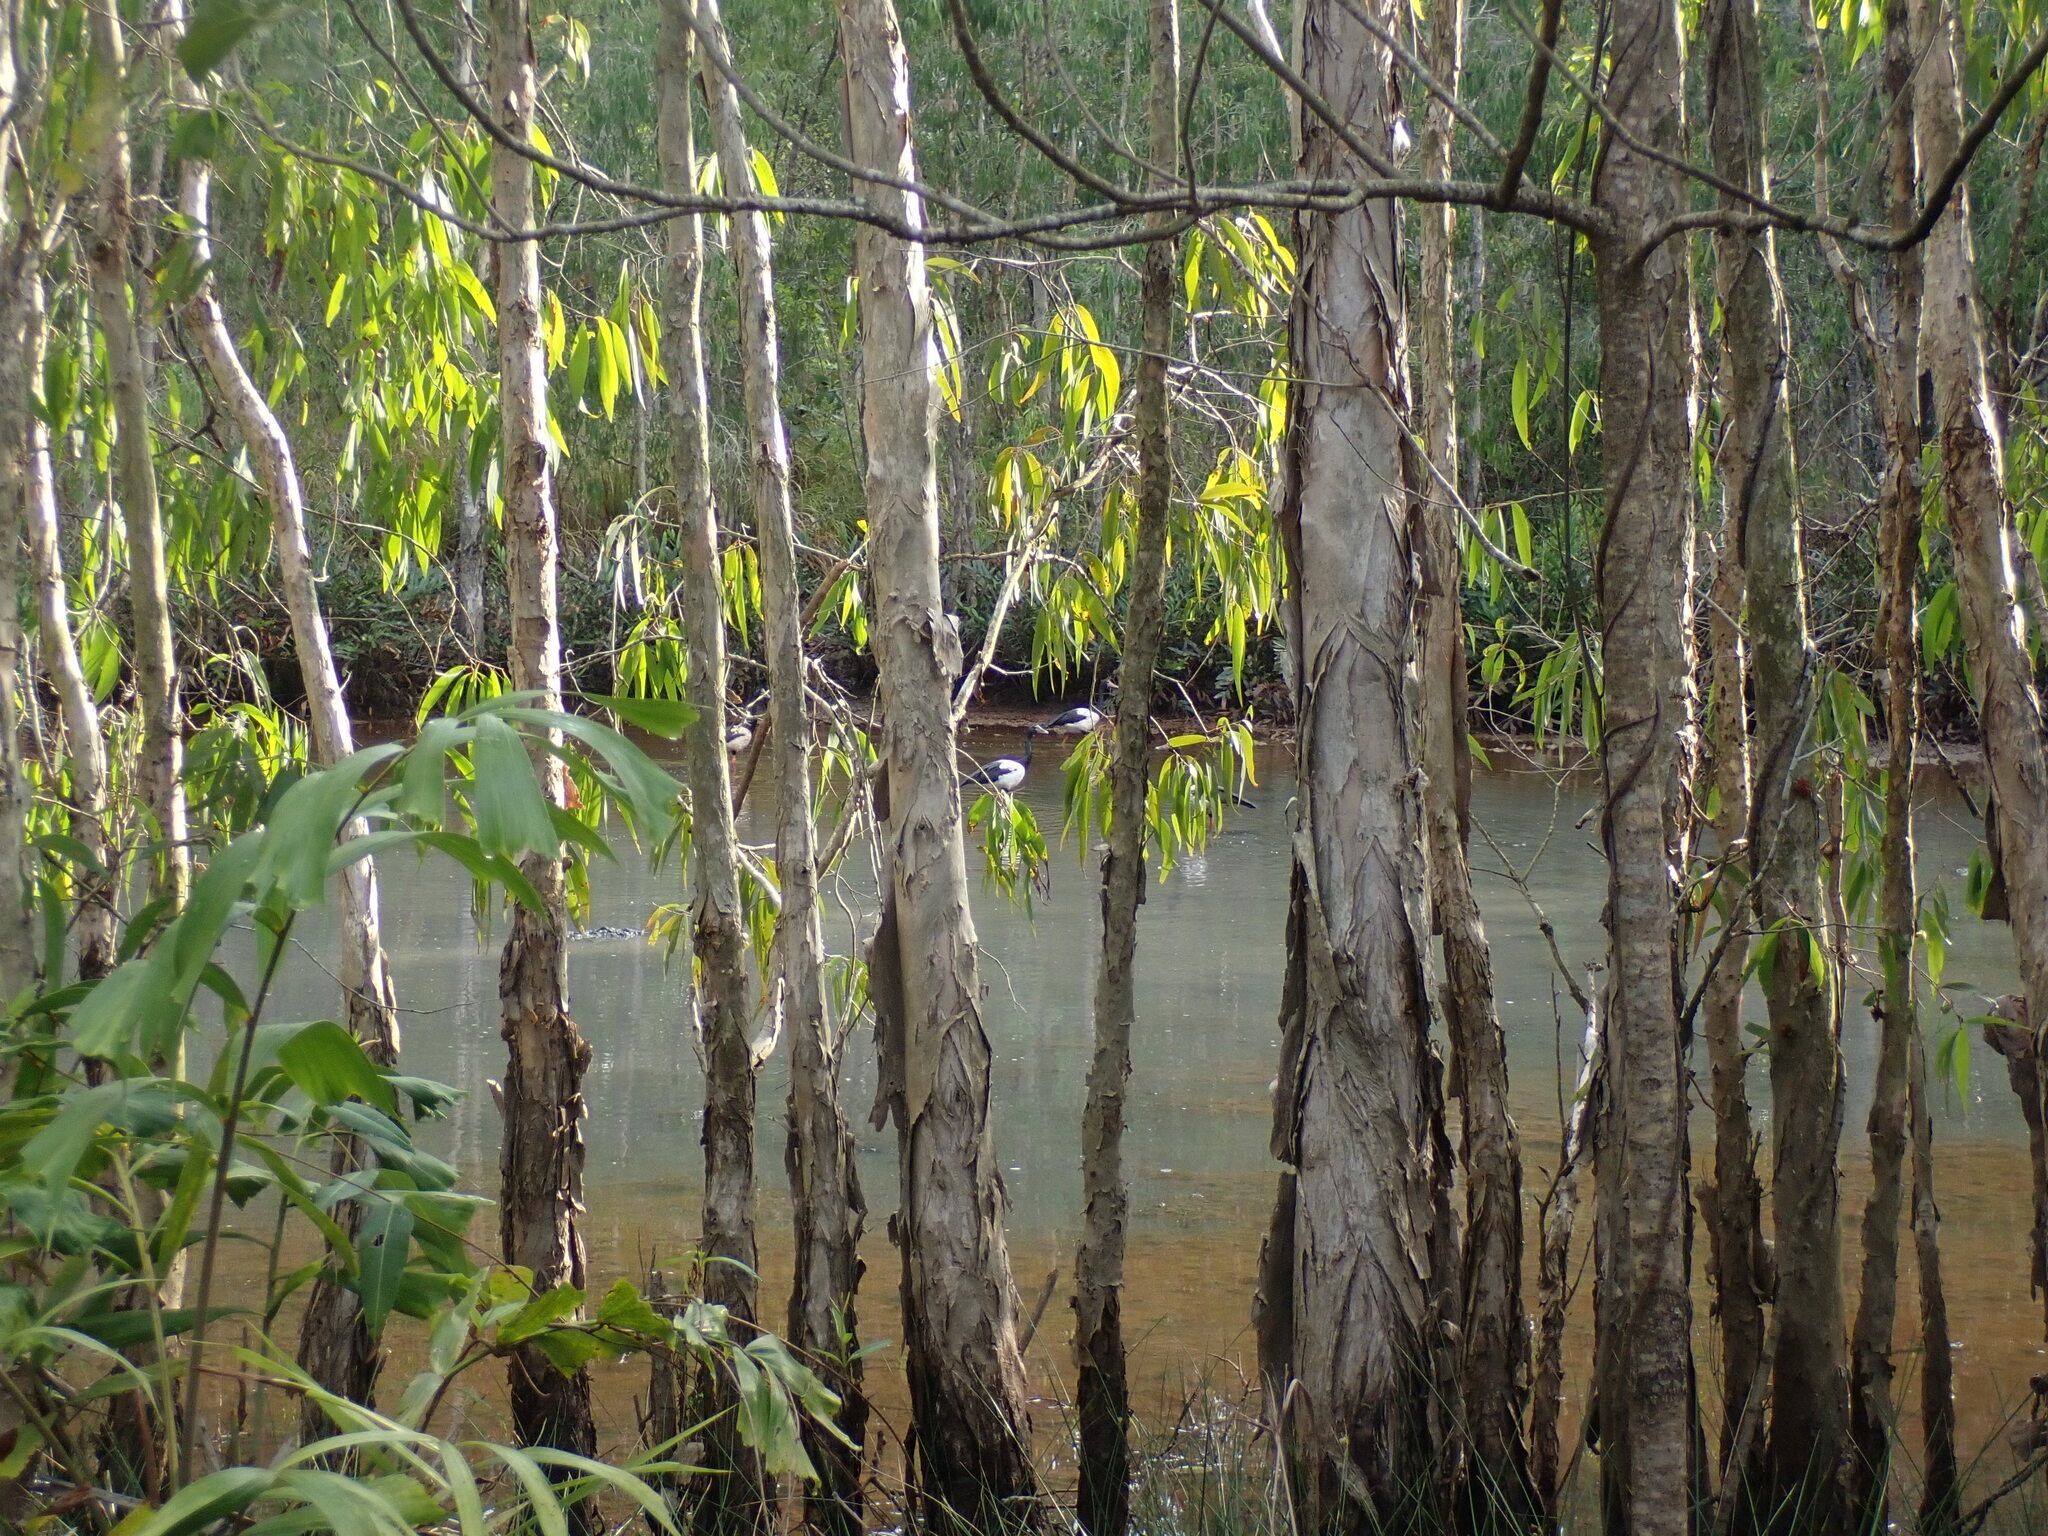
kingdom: Animalia
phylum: Chordata
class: Aves
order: Anseriformes
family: Anseranatidae
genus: Anseranas
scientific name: Anseranas semipalmata
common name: Magpie goose
